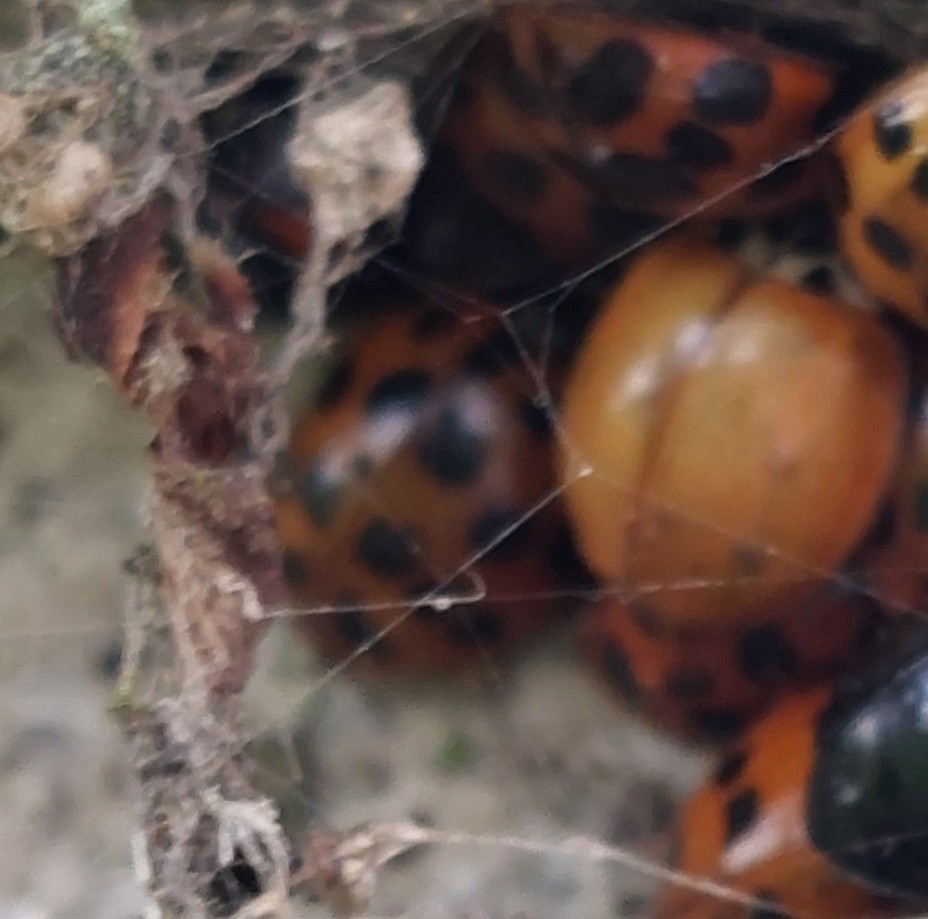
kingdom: Animalia
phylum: Arthropoda
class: Insecta
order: Coleoptera
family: Coccinellidae
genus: Harmonia
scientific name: Harmonia axyridis
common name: Harlequin ladybird
